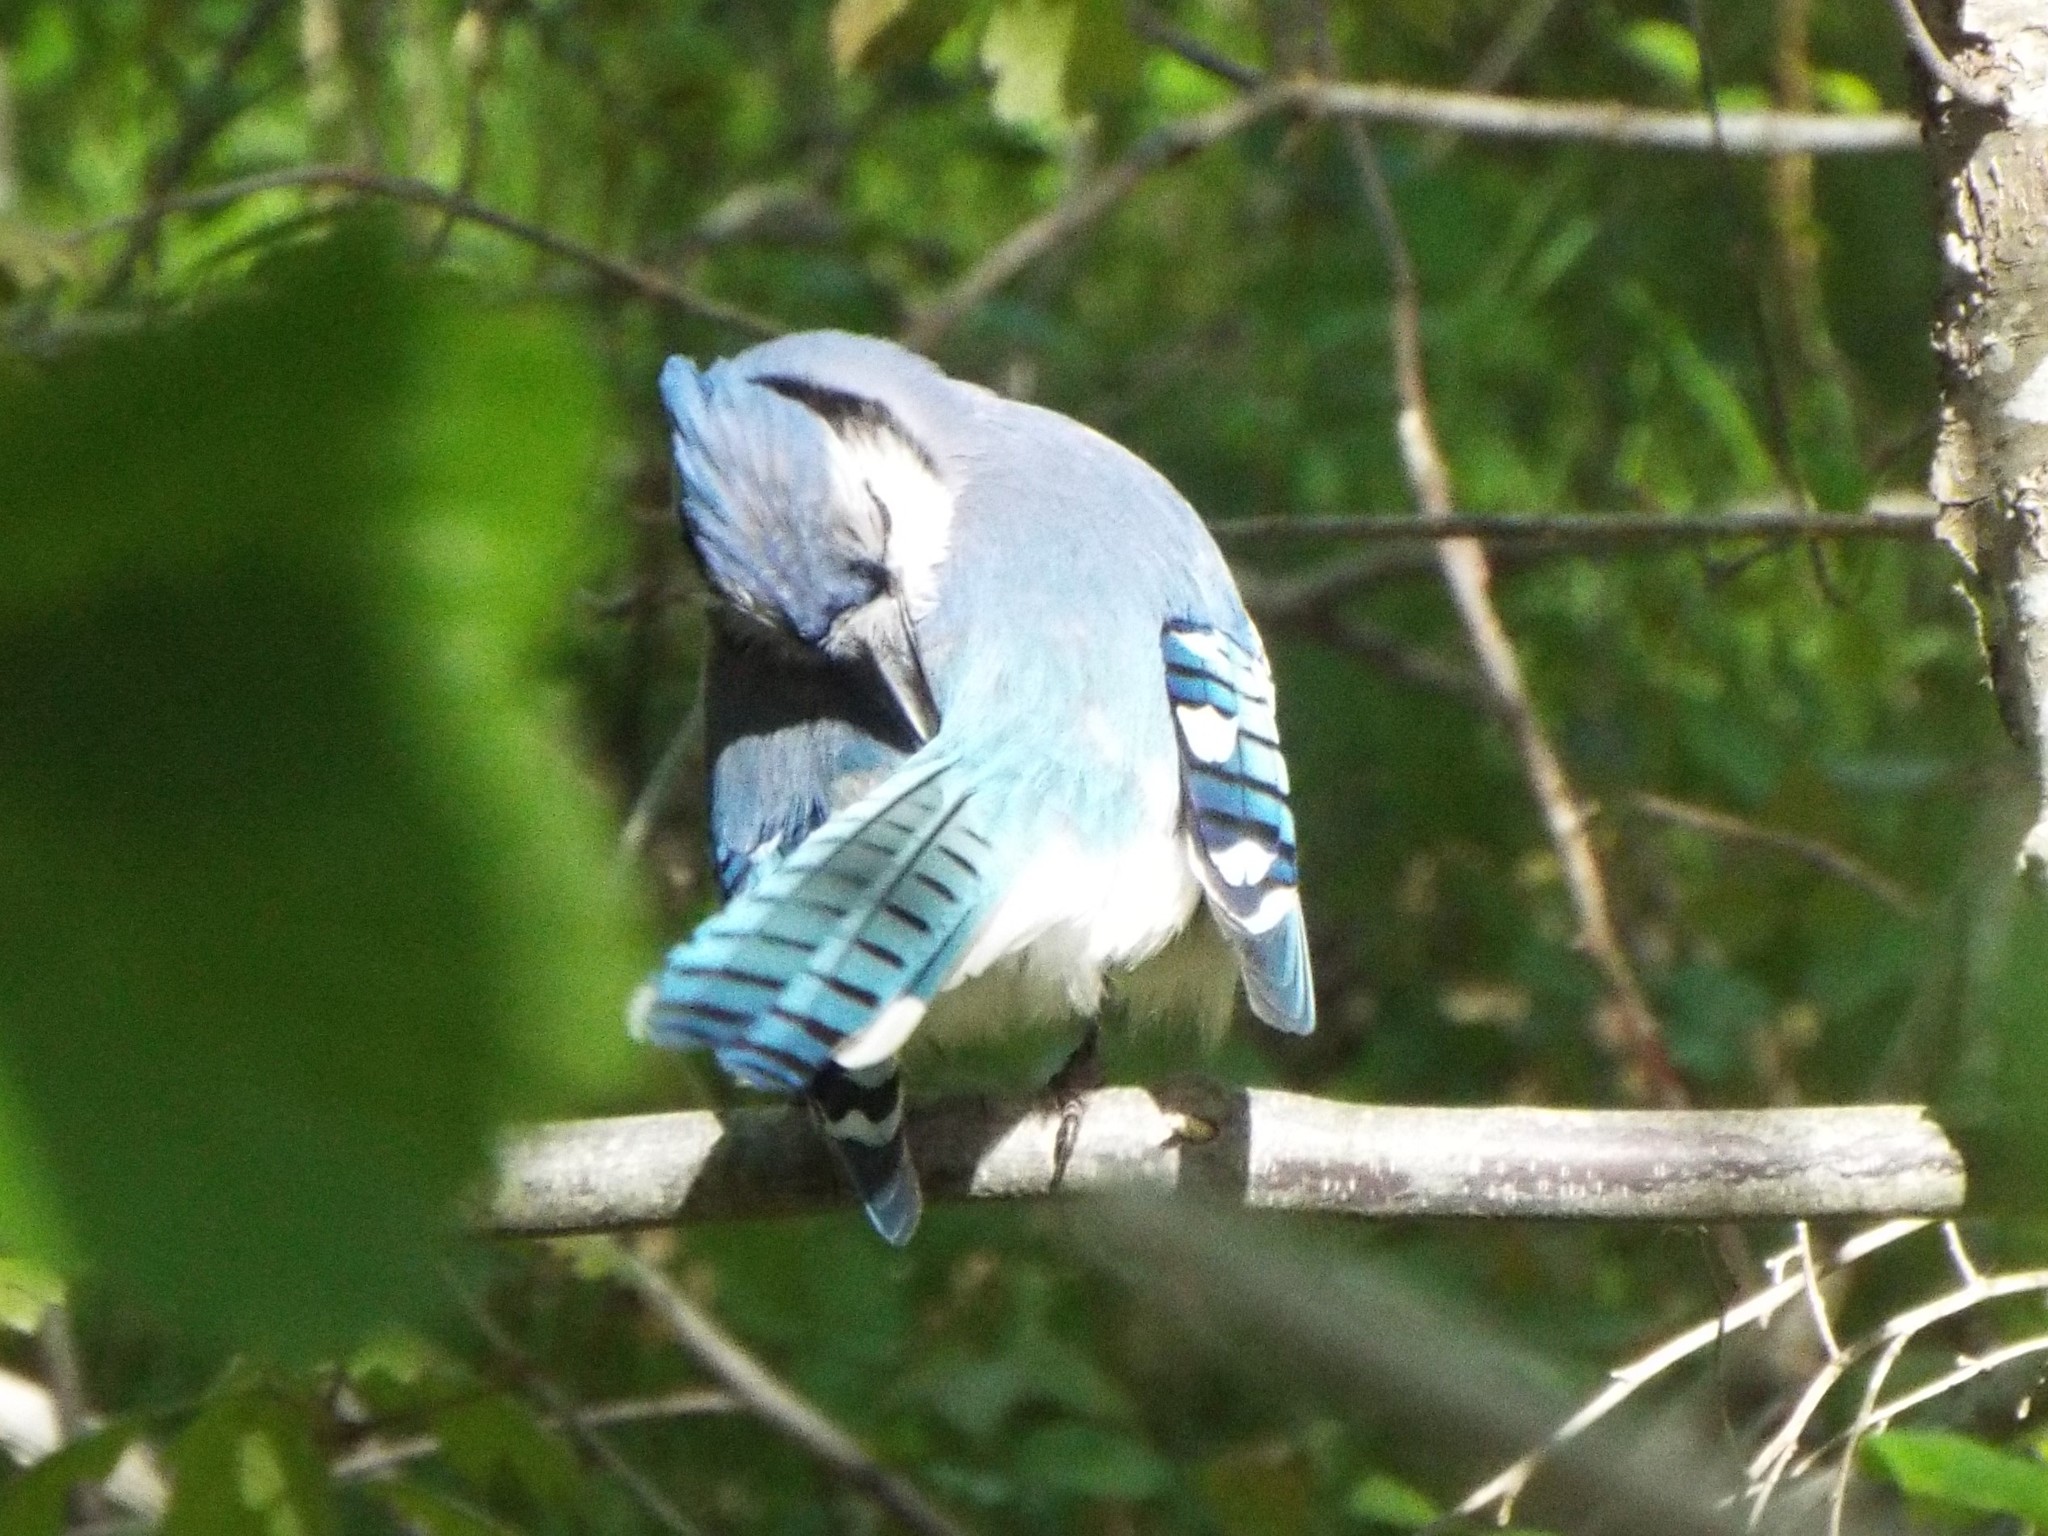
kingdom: Animalia
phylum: Chordata
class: Aves
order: Passeriformes
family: Corvidae
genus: Cyanocitta
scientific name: Cyanocitta cristata
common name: Blue jay
